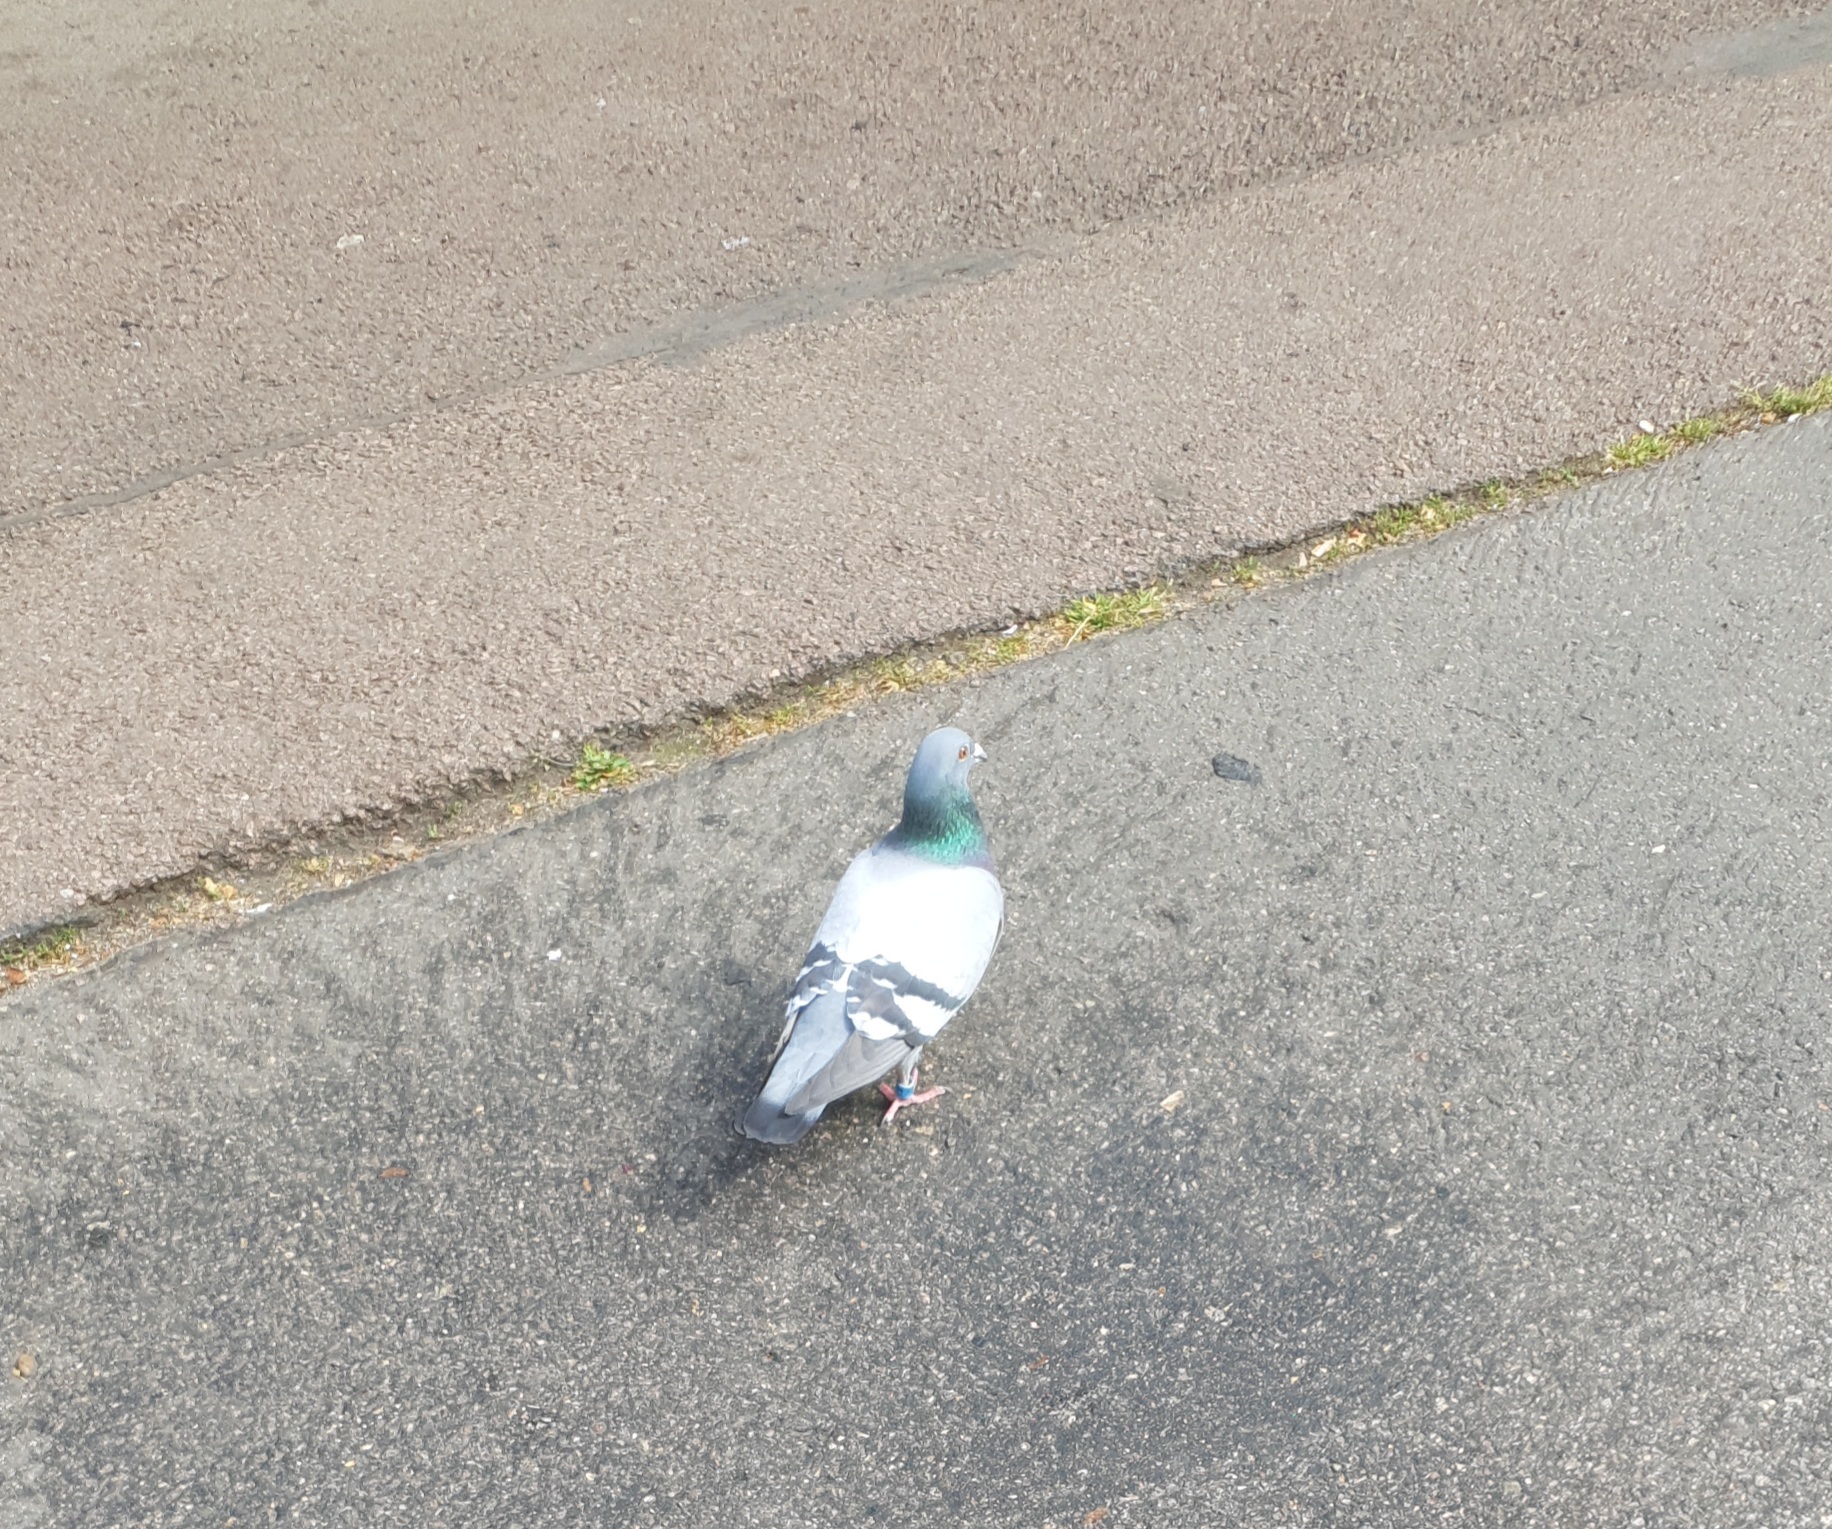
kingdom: Animalia
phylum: Chordata
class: Aves
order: Columbiformes
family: Columbidae
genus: Columba
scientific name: Columba livia
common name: Rock pigeon
